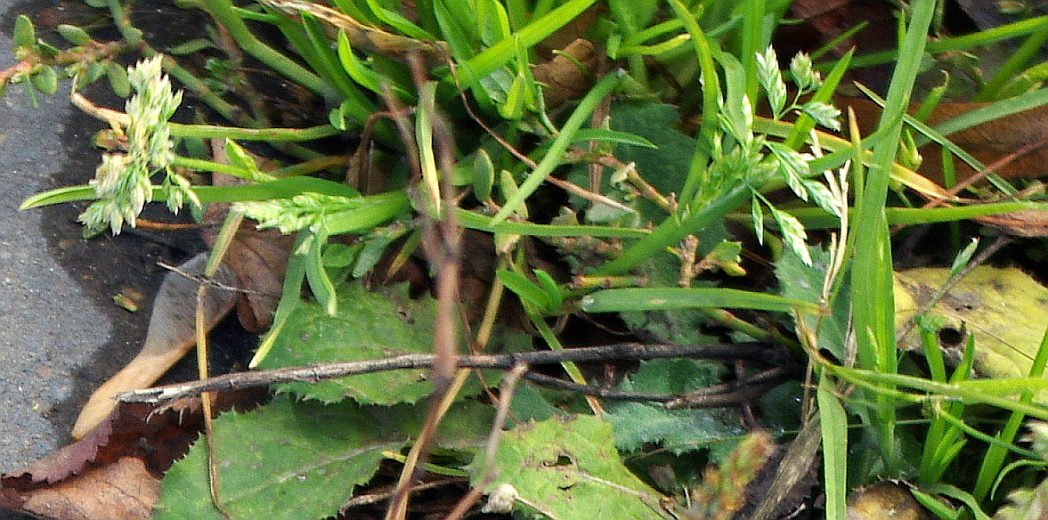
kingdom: Plantae
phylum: Tracheophyta
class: Liliopsida
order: Poales
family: Poaceae
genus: Poa
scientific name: Poa annua
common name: Annual bluegrass
